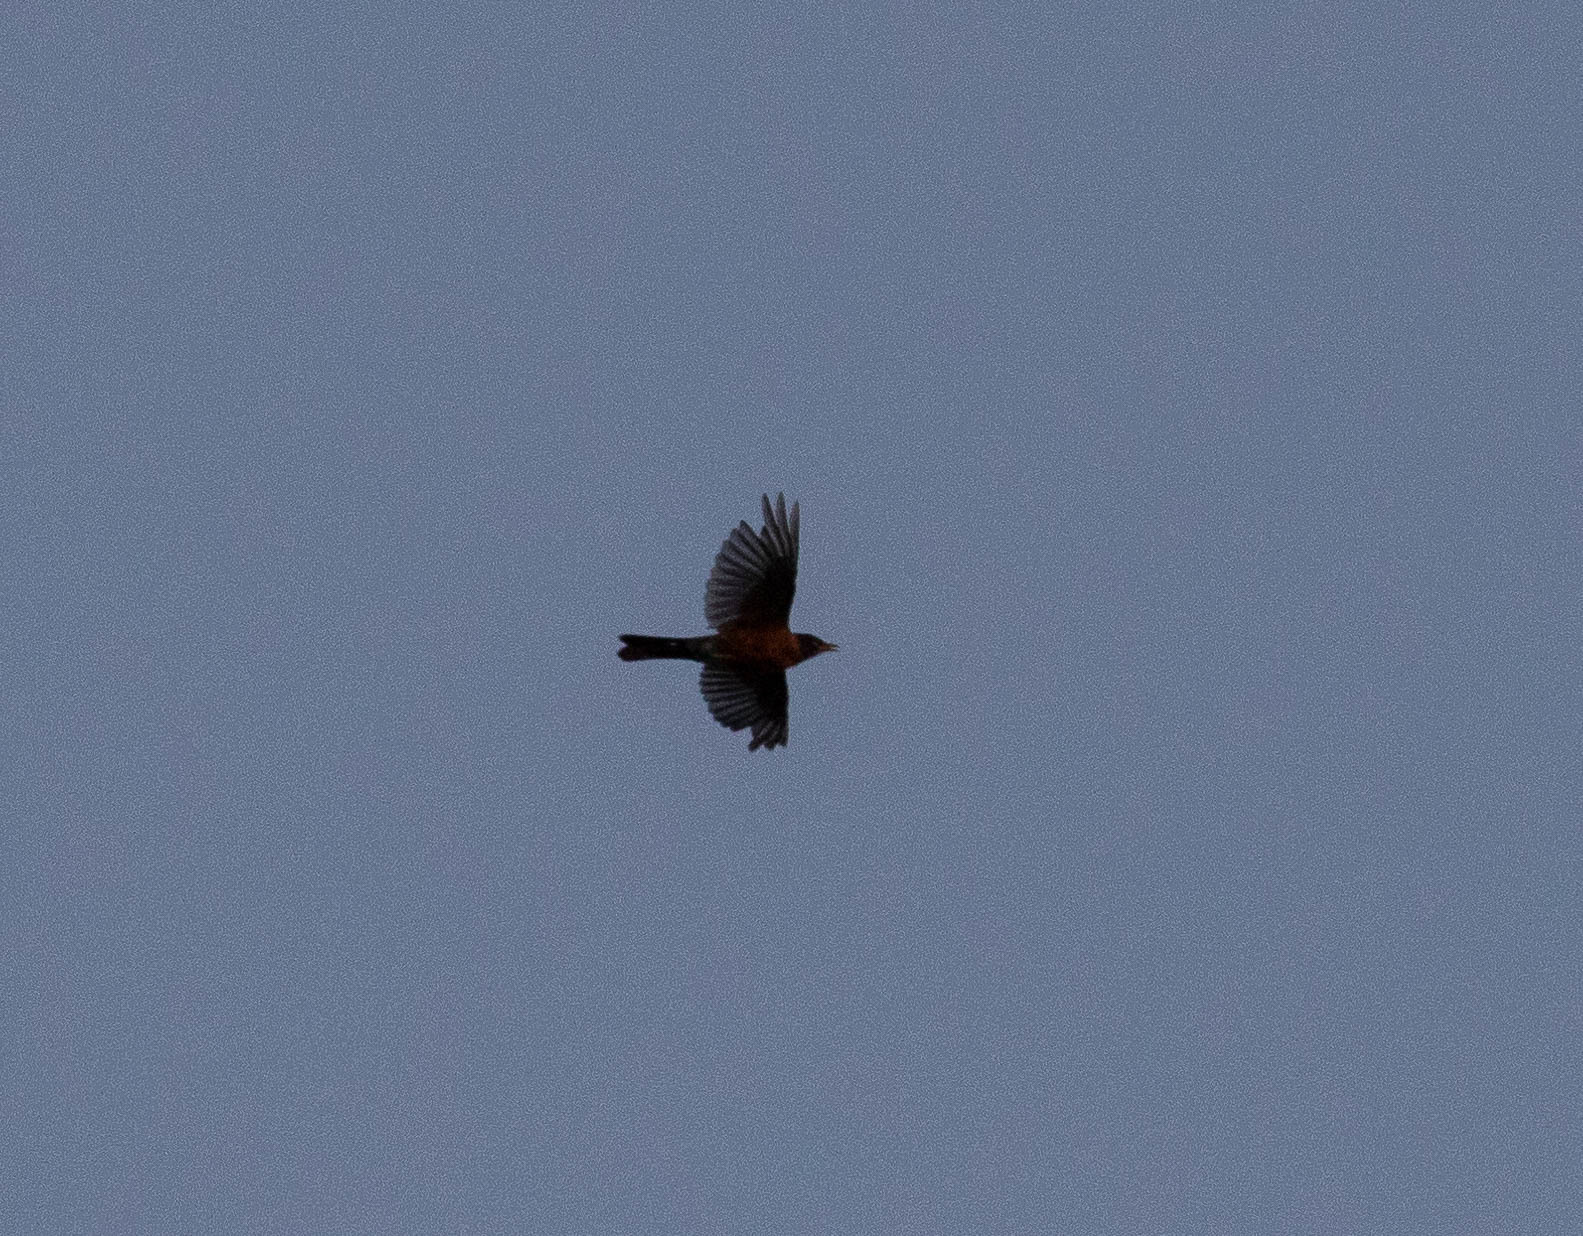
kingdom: Animalia
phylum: Chordata
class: Aves
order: Passeriformes
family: Turdidae
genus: Turdus
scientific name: Turdus migratorius
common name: American robin
